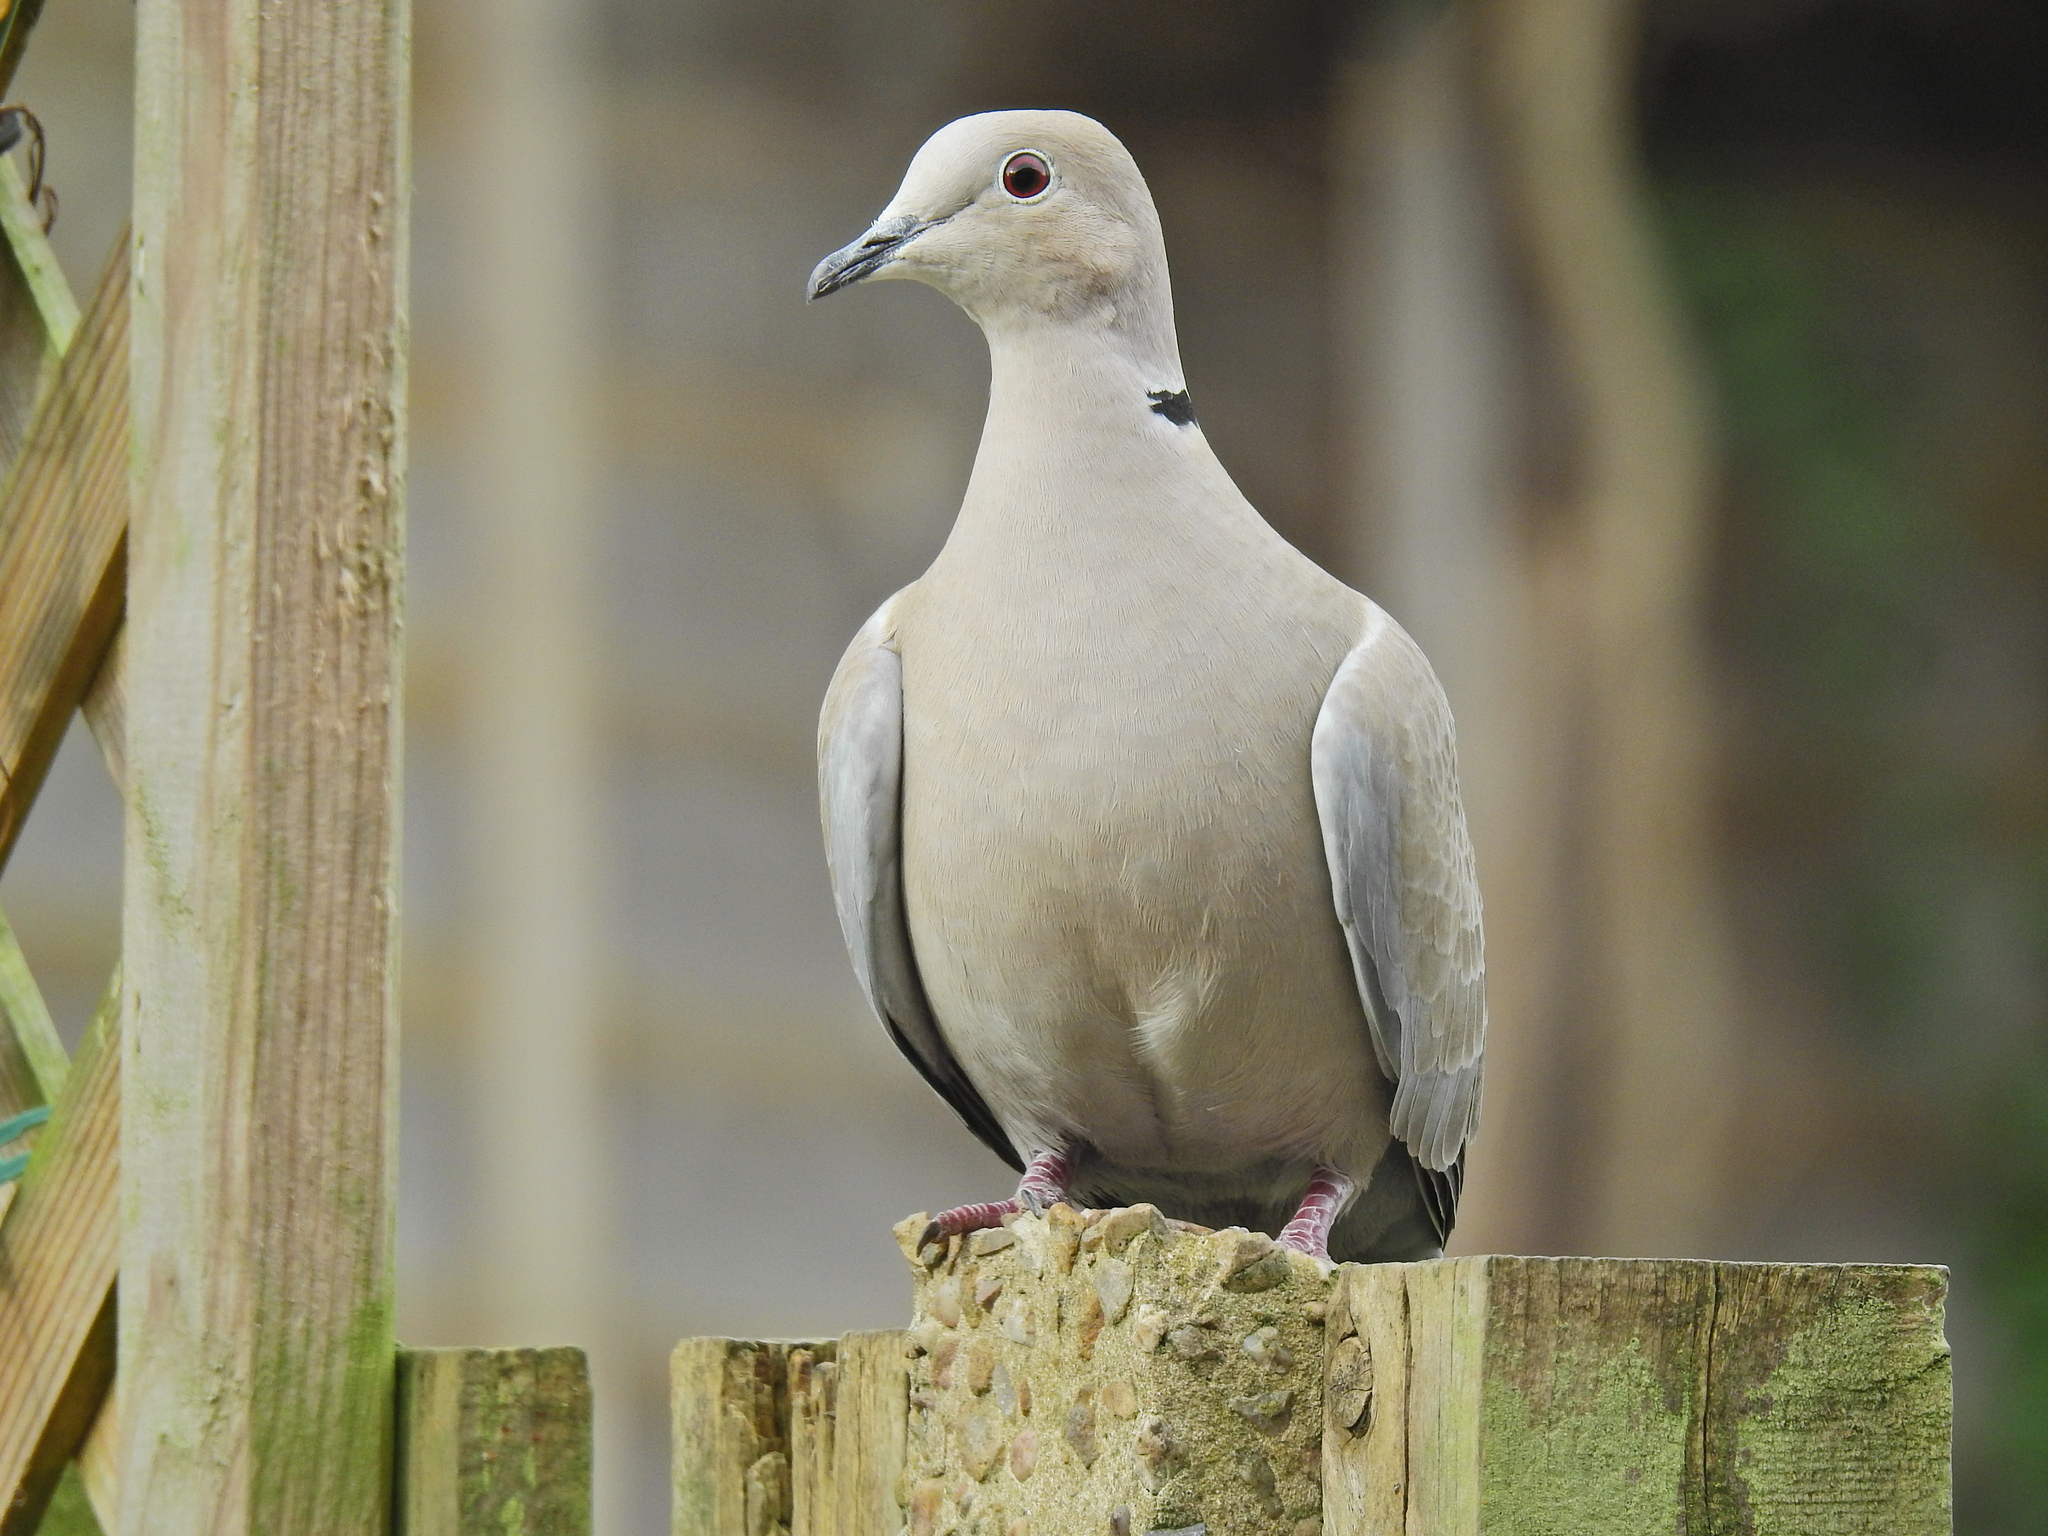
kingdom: Animalia
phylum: Chordata
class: Aves
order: Columbiformes
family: Columbidae
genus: Streptopelia
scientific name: Streptopelia decaocto
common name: Eurasian collared dove
